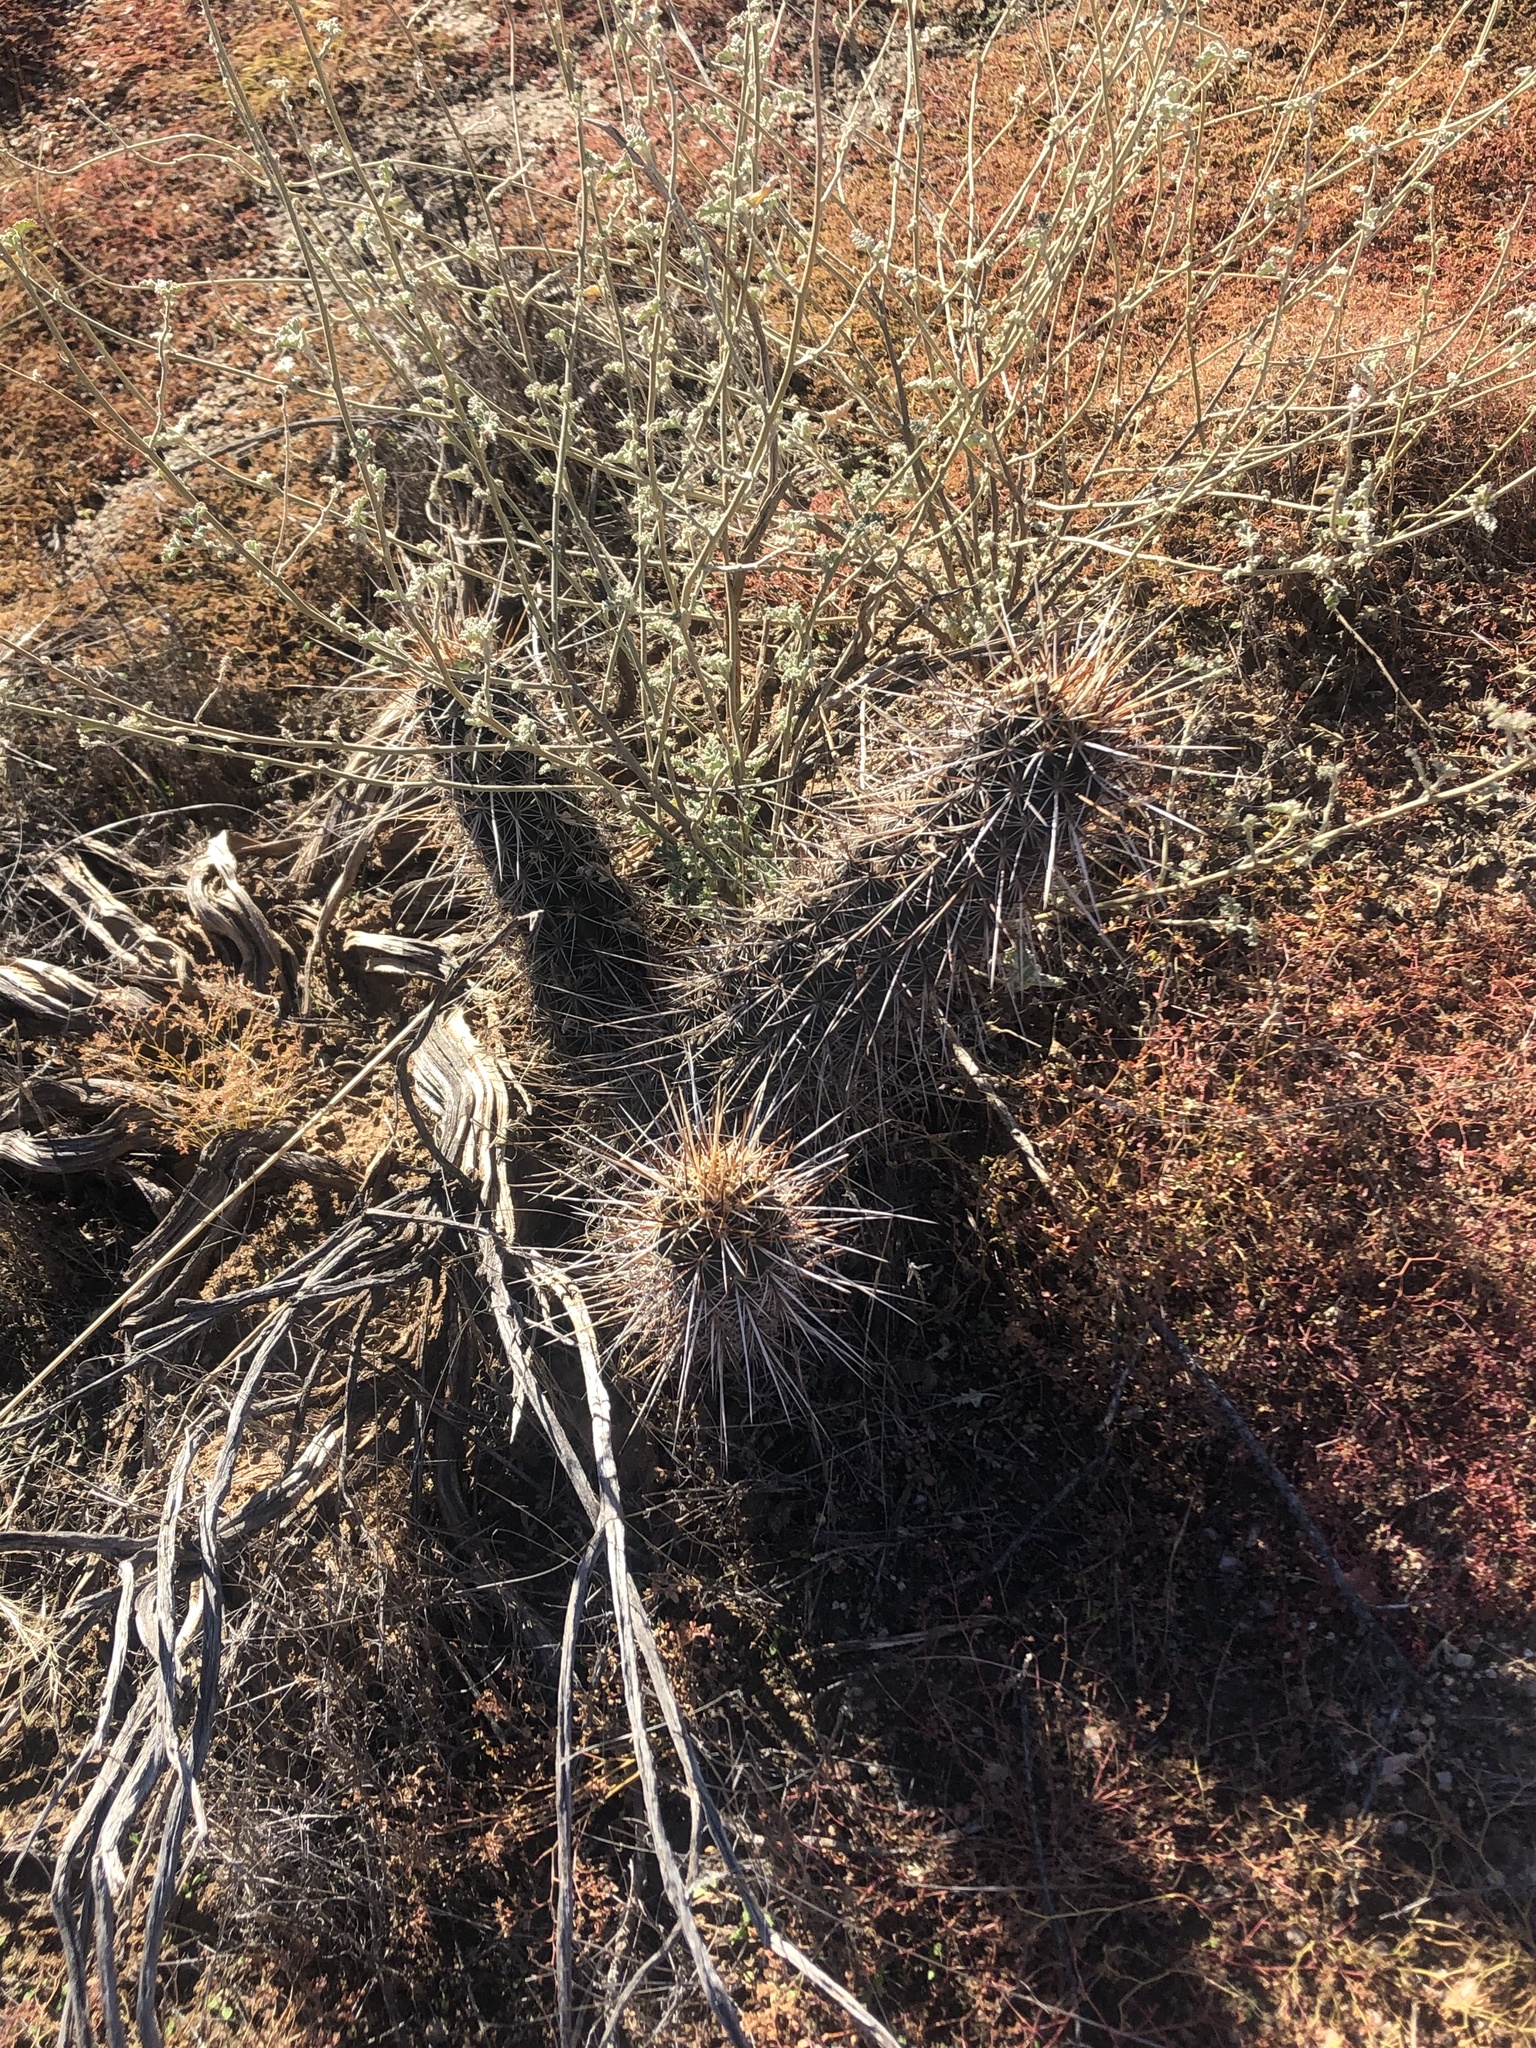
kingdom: Plantae
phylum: Tracheophyta
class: Magnoliopsida
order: Caryophyllales
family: Cactaceae
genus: Echinocereus
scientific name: Echinocereus engelmannii
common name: Engelmann's hedgehog cactus
